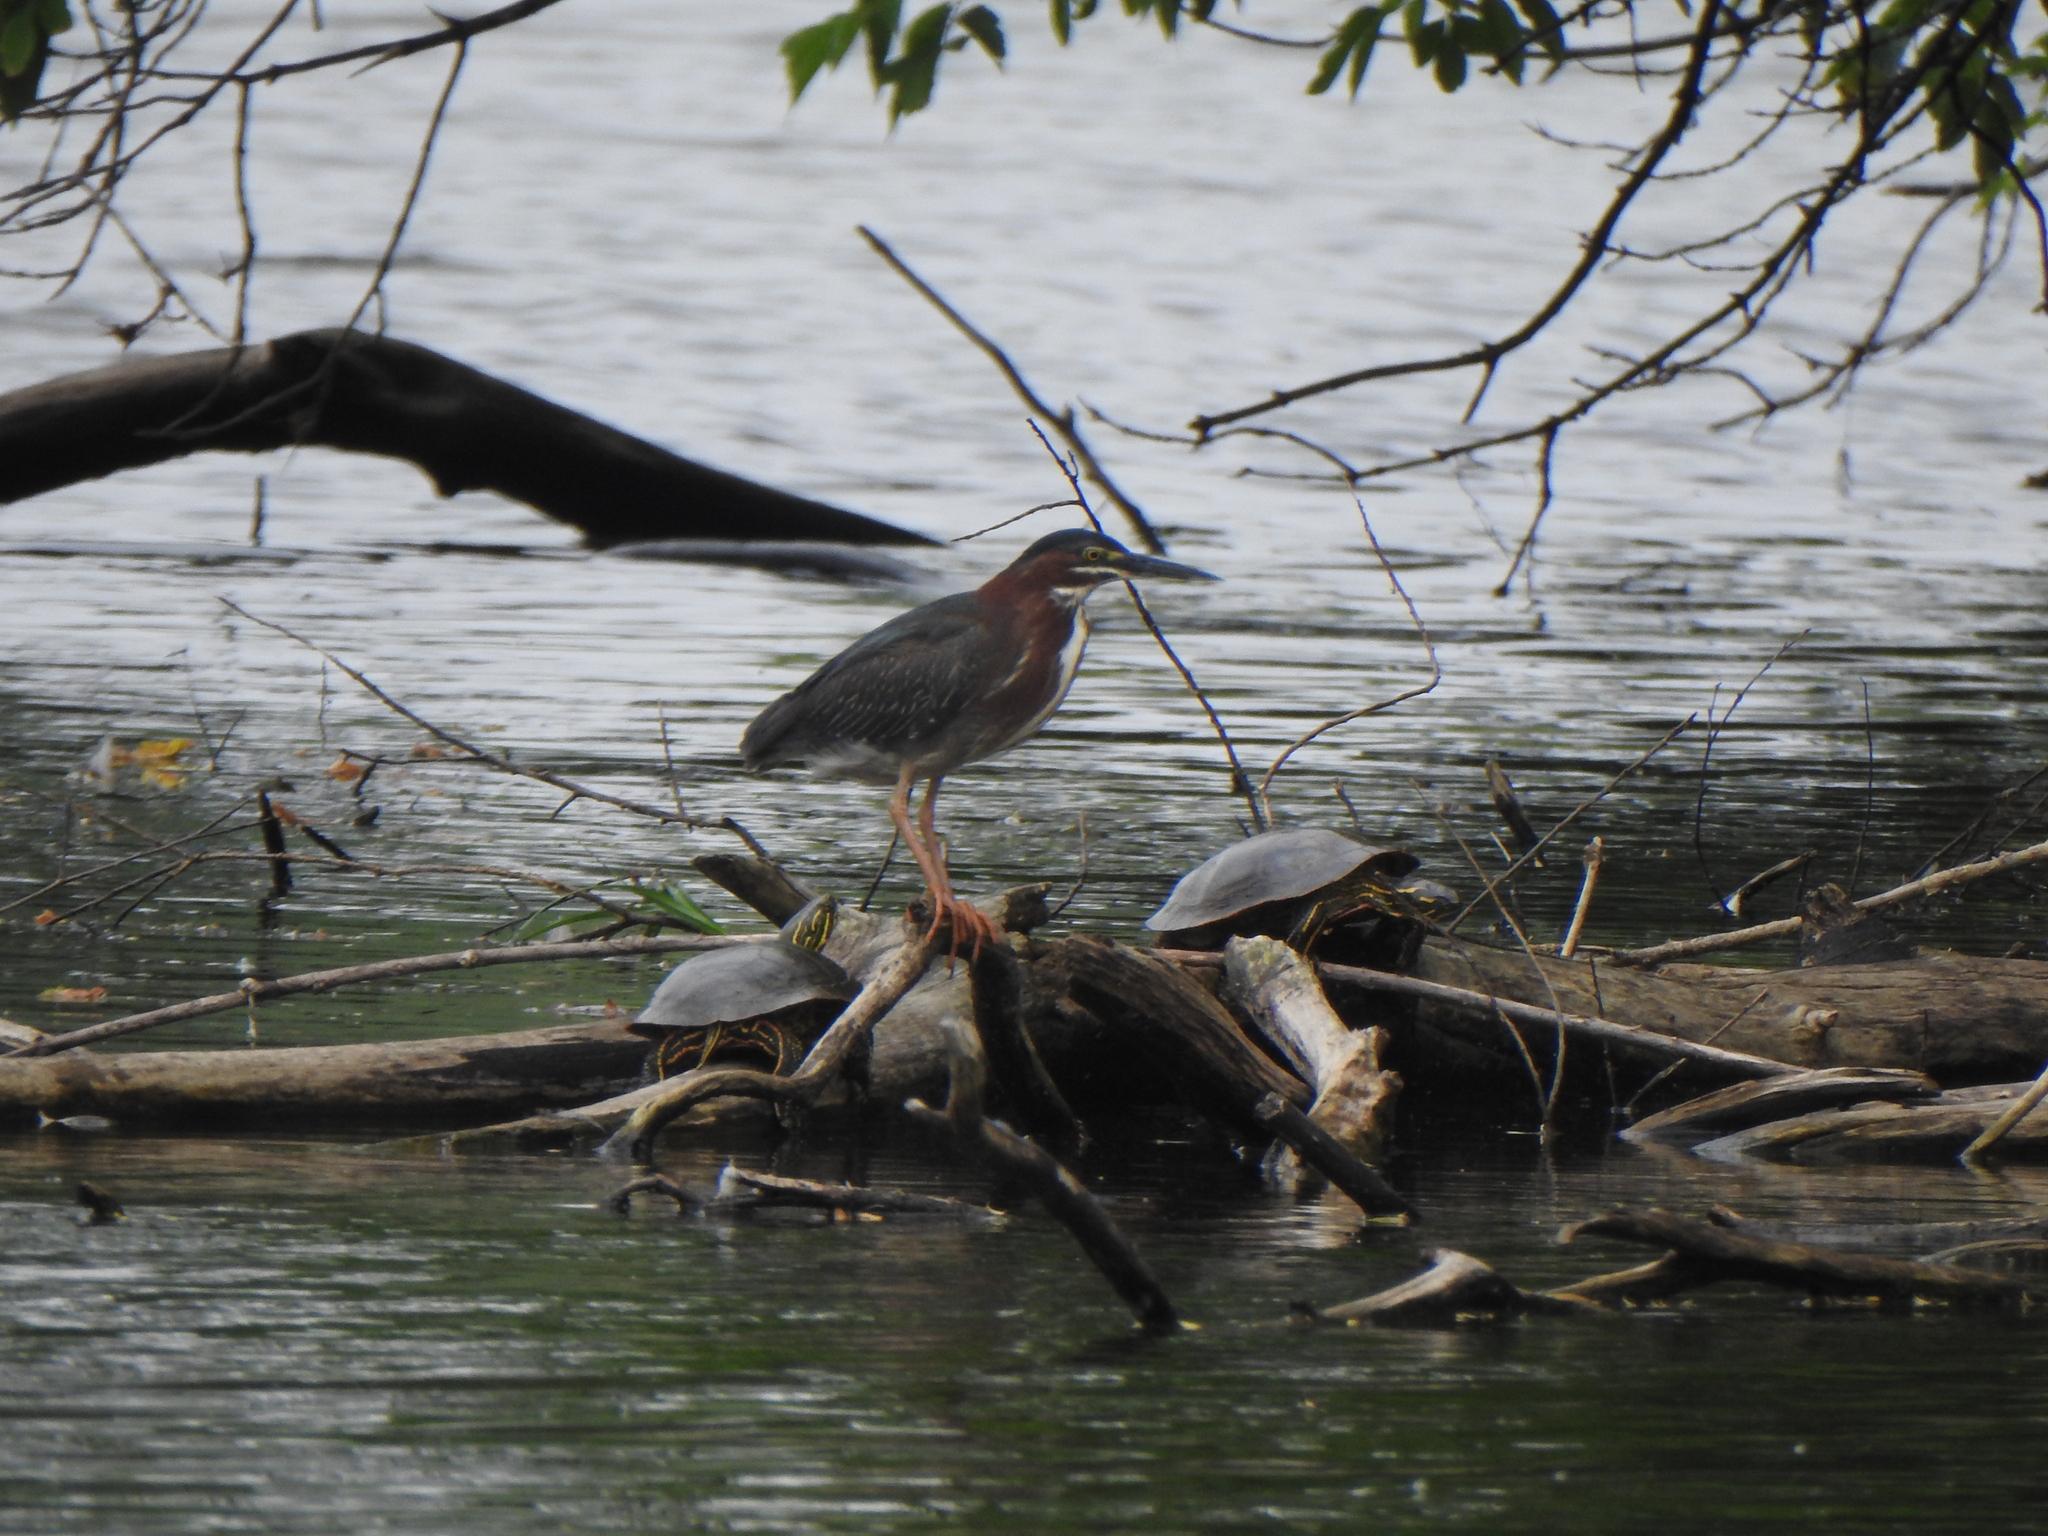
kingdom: Animalia
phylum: Chordata
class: Aves
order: Pelecaniformes
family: Ardeidae
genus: Butorides
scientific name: Butorides virescens
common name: Green heron
